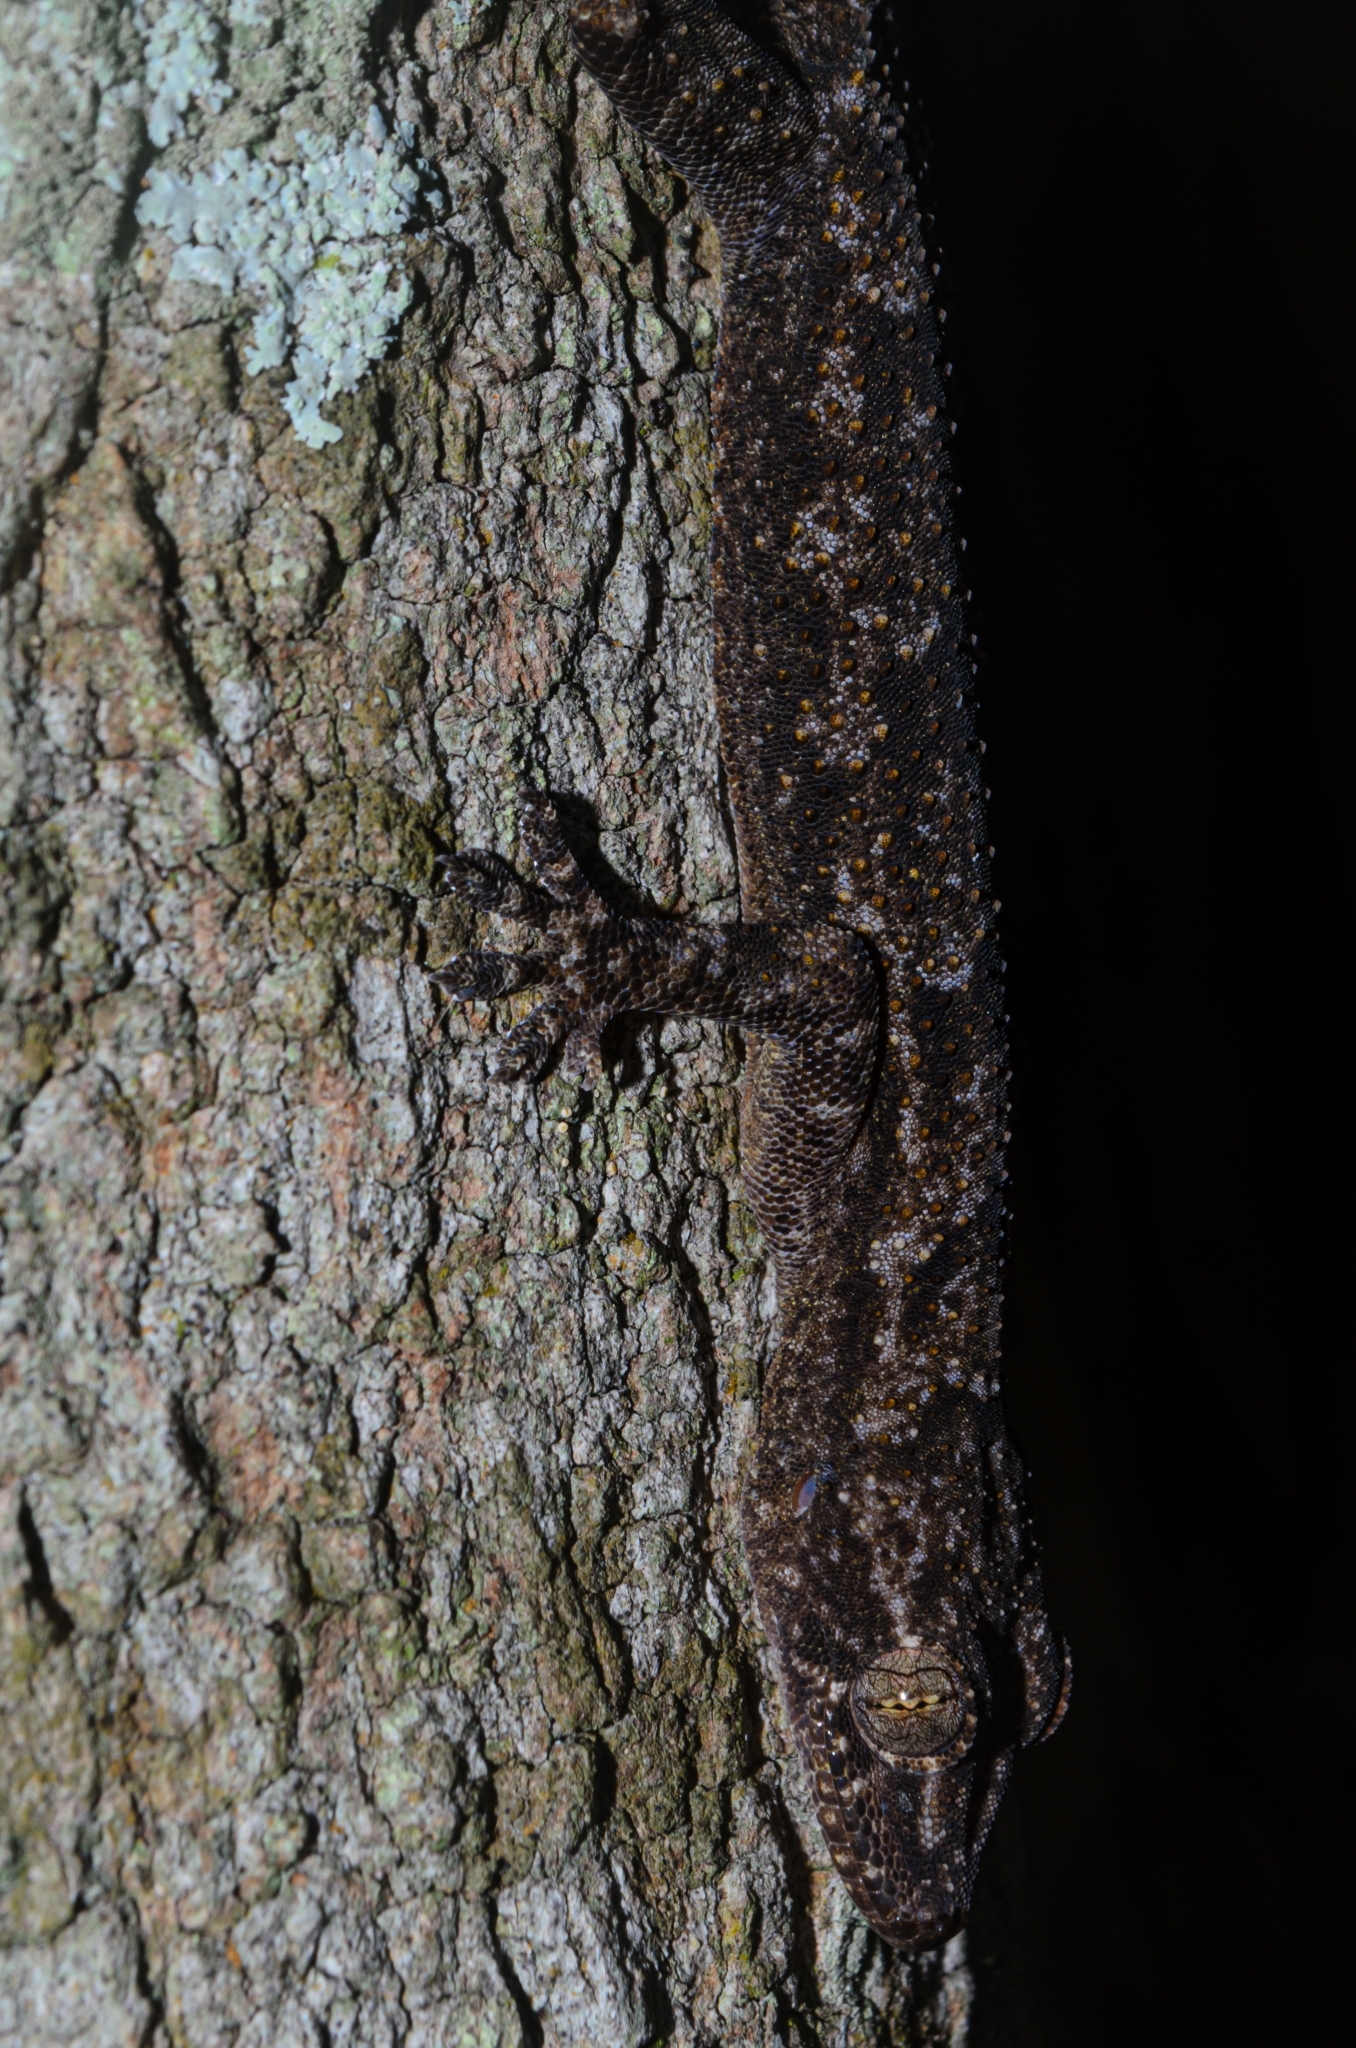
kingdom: Animalia
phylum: Chordata
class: Squamata
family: Gekkonidae
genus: Hemidactylus
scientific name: Hemidactylus mabouia
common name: House gecko
